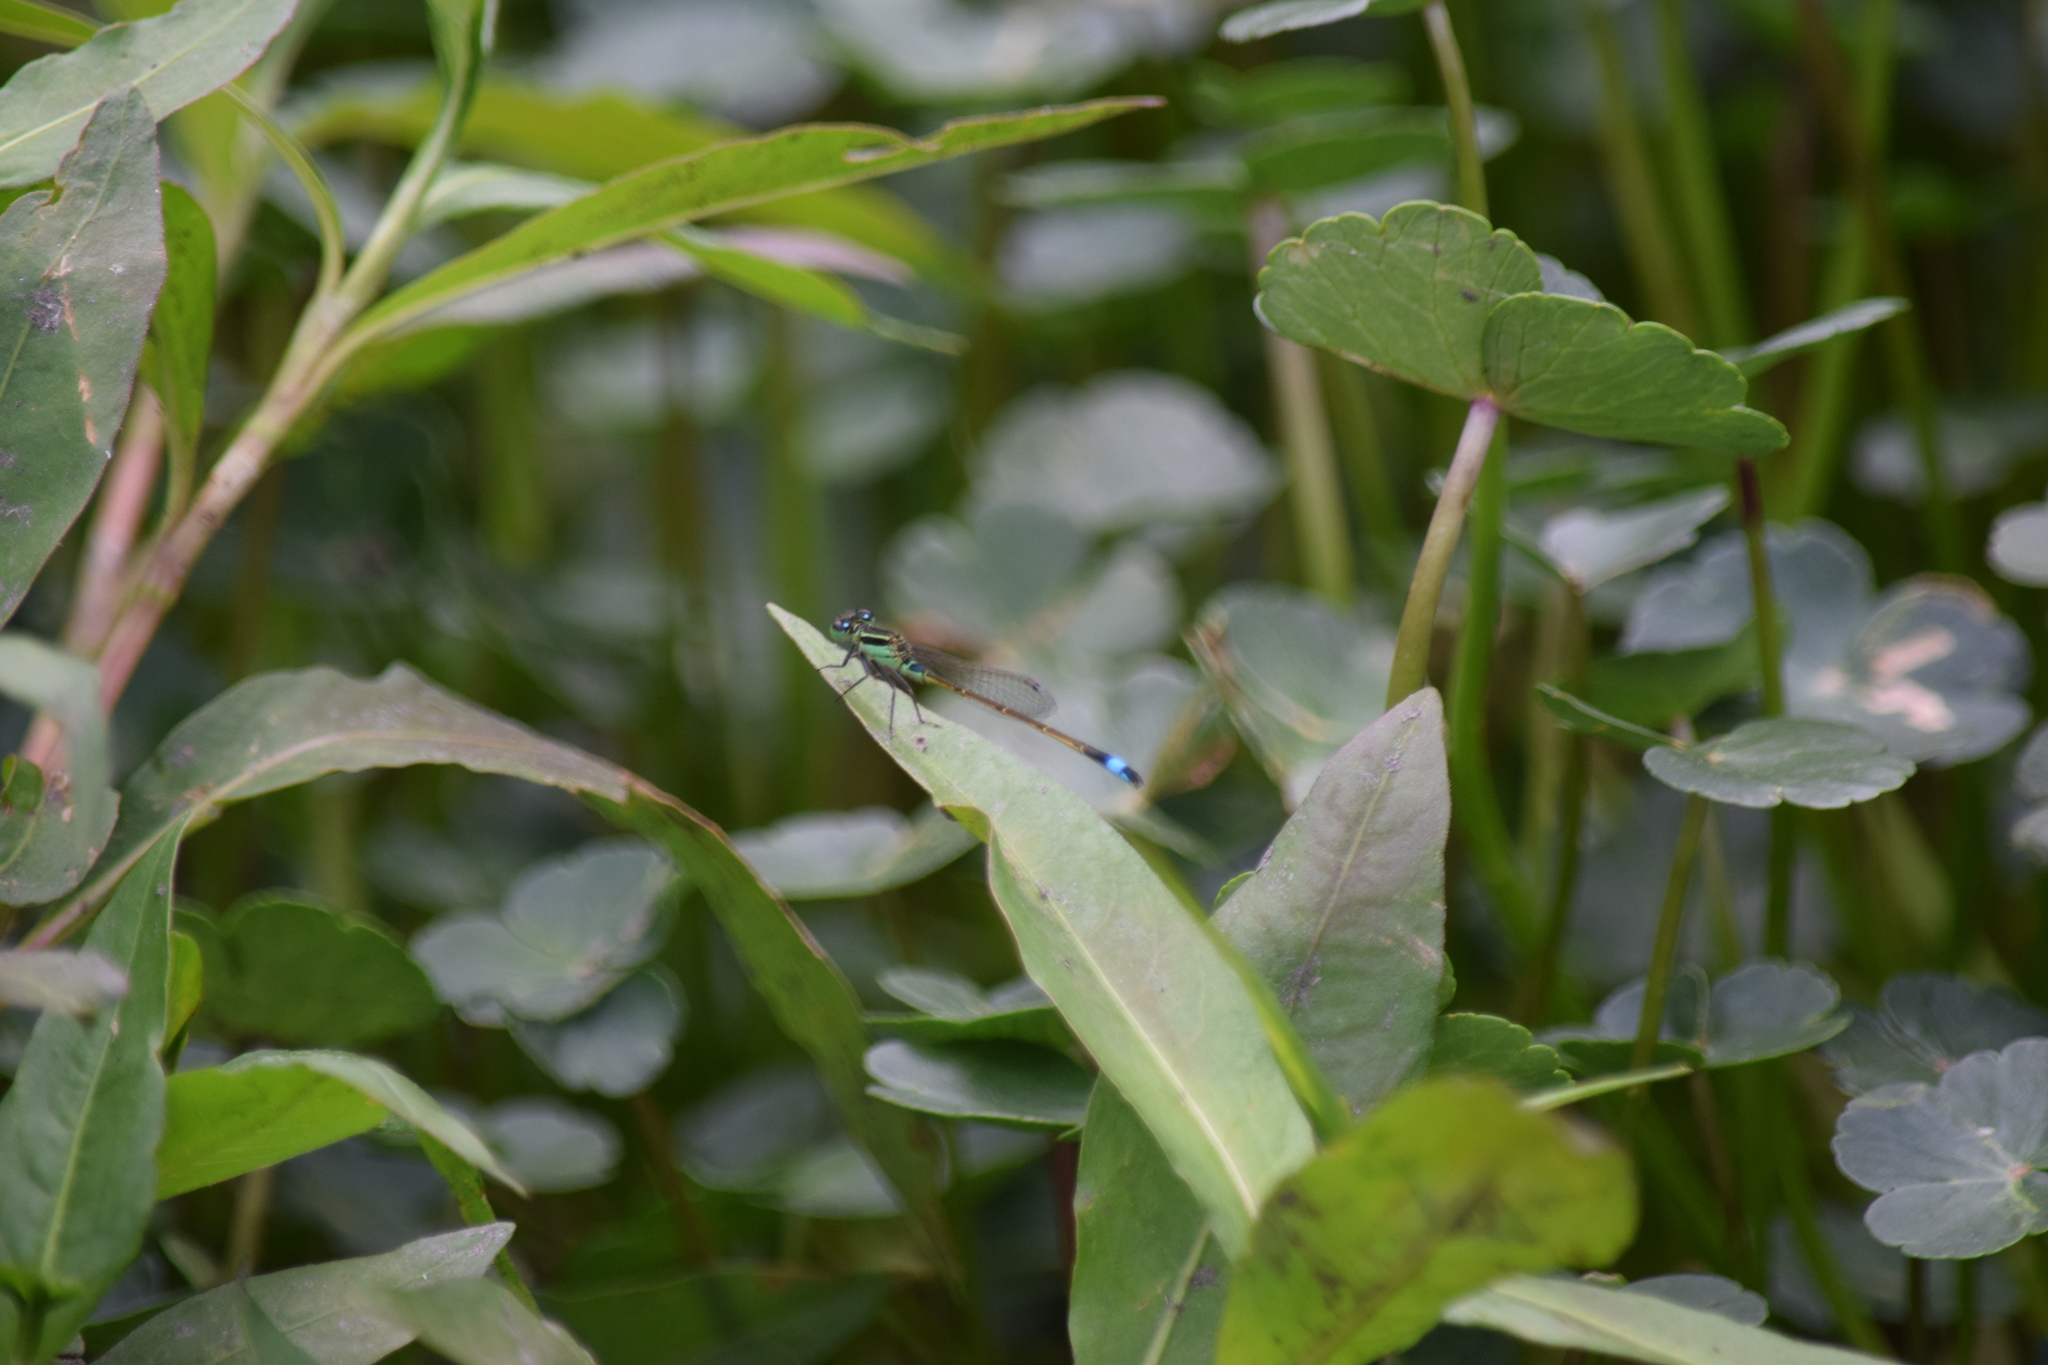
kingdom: Animalia
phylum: Arthropoda
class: Insecta
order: Odonata
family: Coenagrionidae
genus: Ischnura
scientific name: Ischnura ramburii
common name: Rambur's forktail
